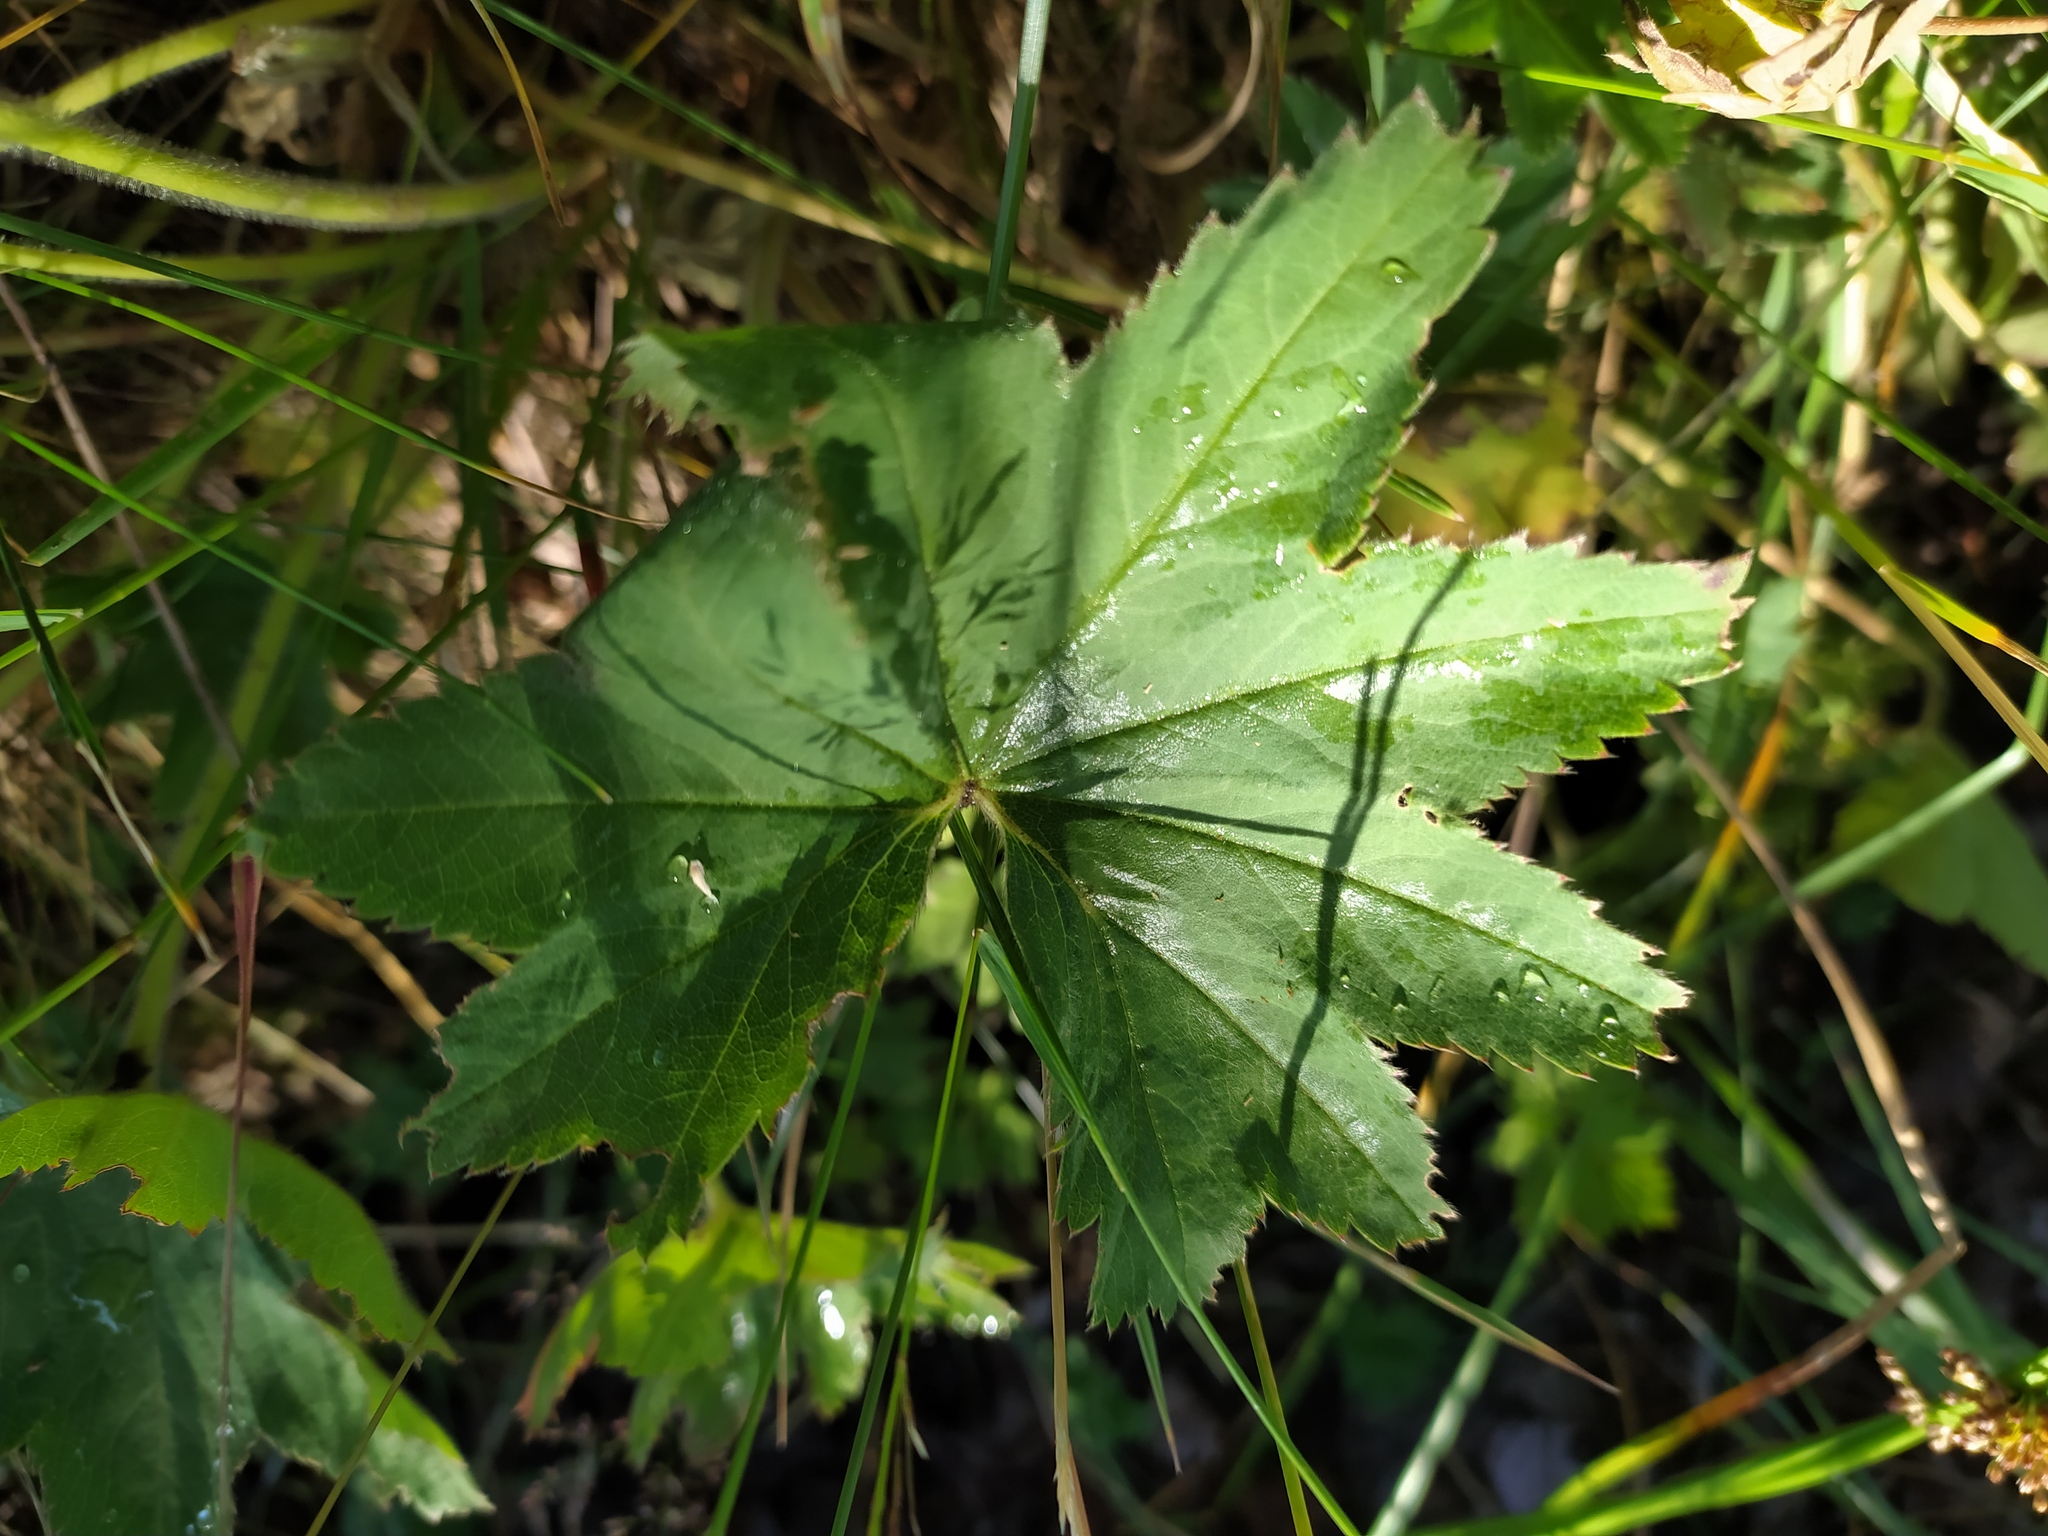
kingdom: Plantae
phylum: Tracheophyta
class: Magnoliopsida
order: Rosales
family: Rosaceae
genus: Alchemilla
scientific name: Alchemilla vulgaris
